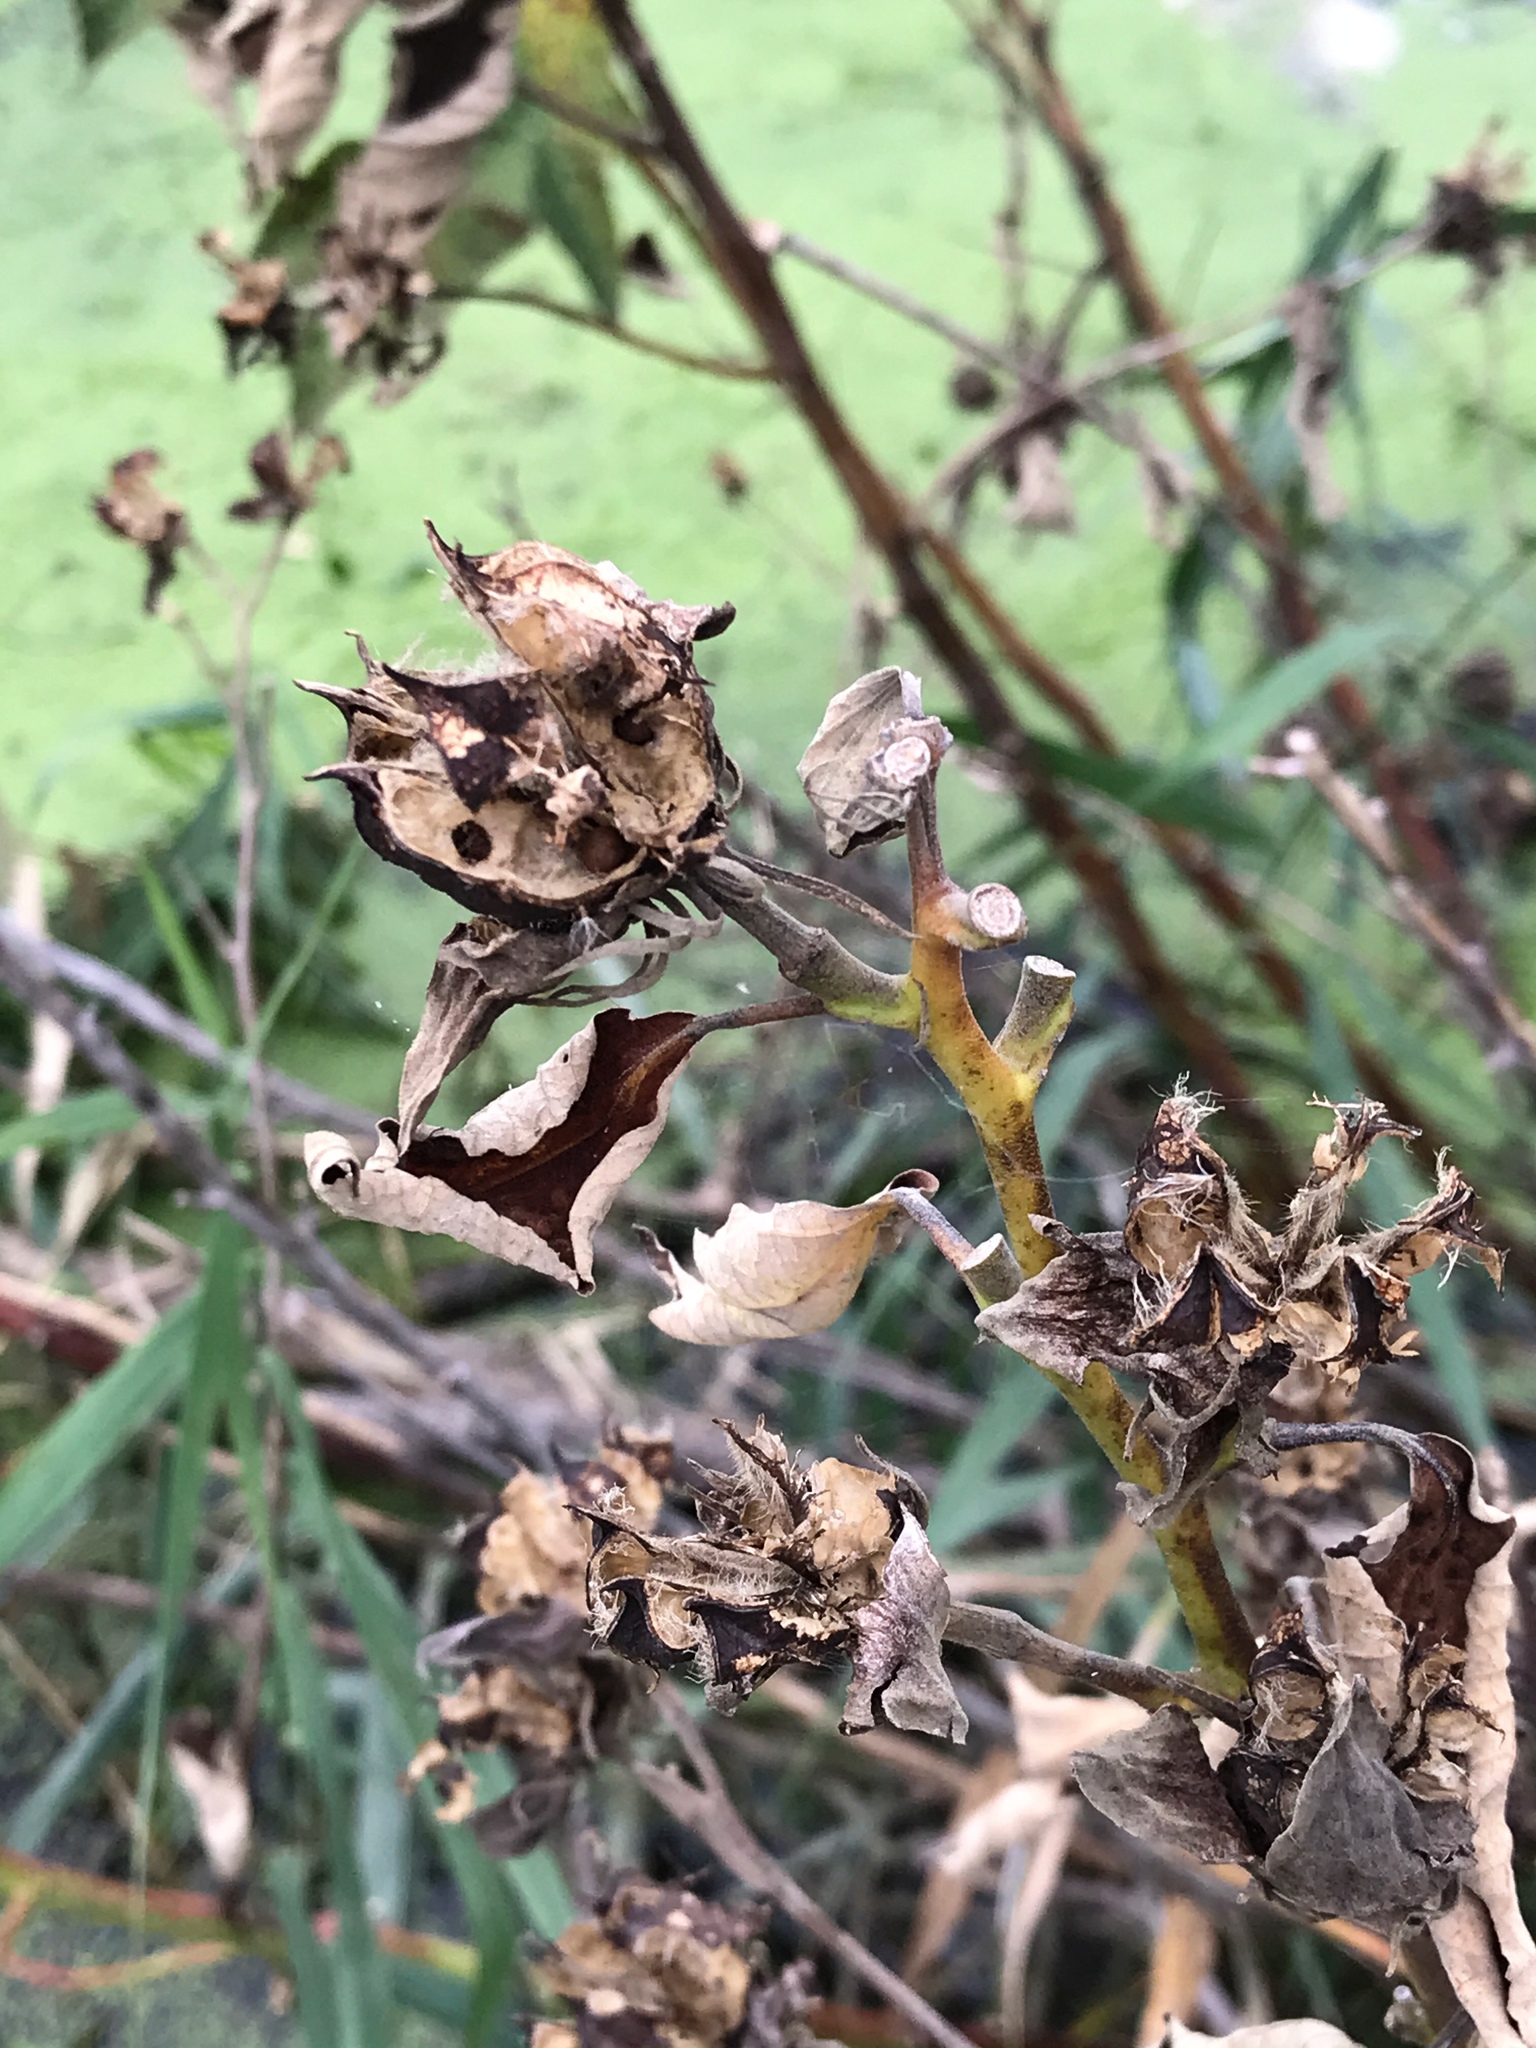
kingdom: Plantae
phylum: Tracheophyta
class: Magnoliopsida
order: Malvales
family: Malvaceae
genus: Hibiscus
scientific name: Hibiscus moscheutos
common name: Common rose-mallow
